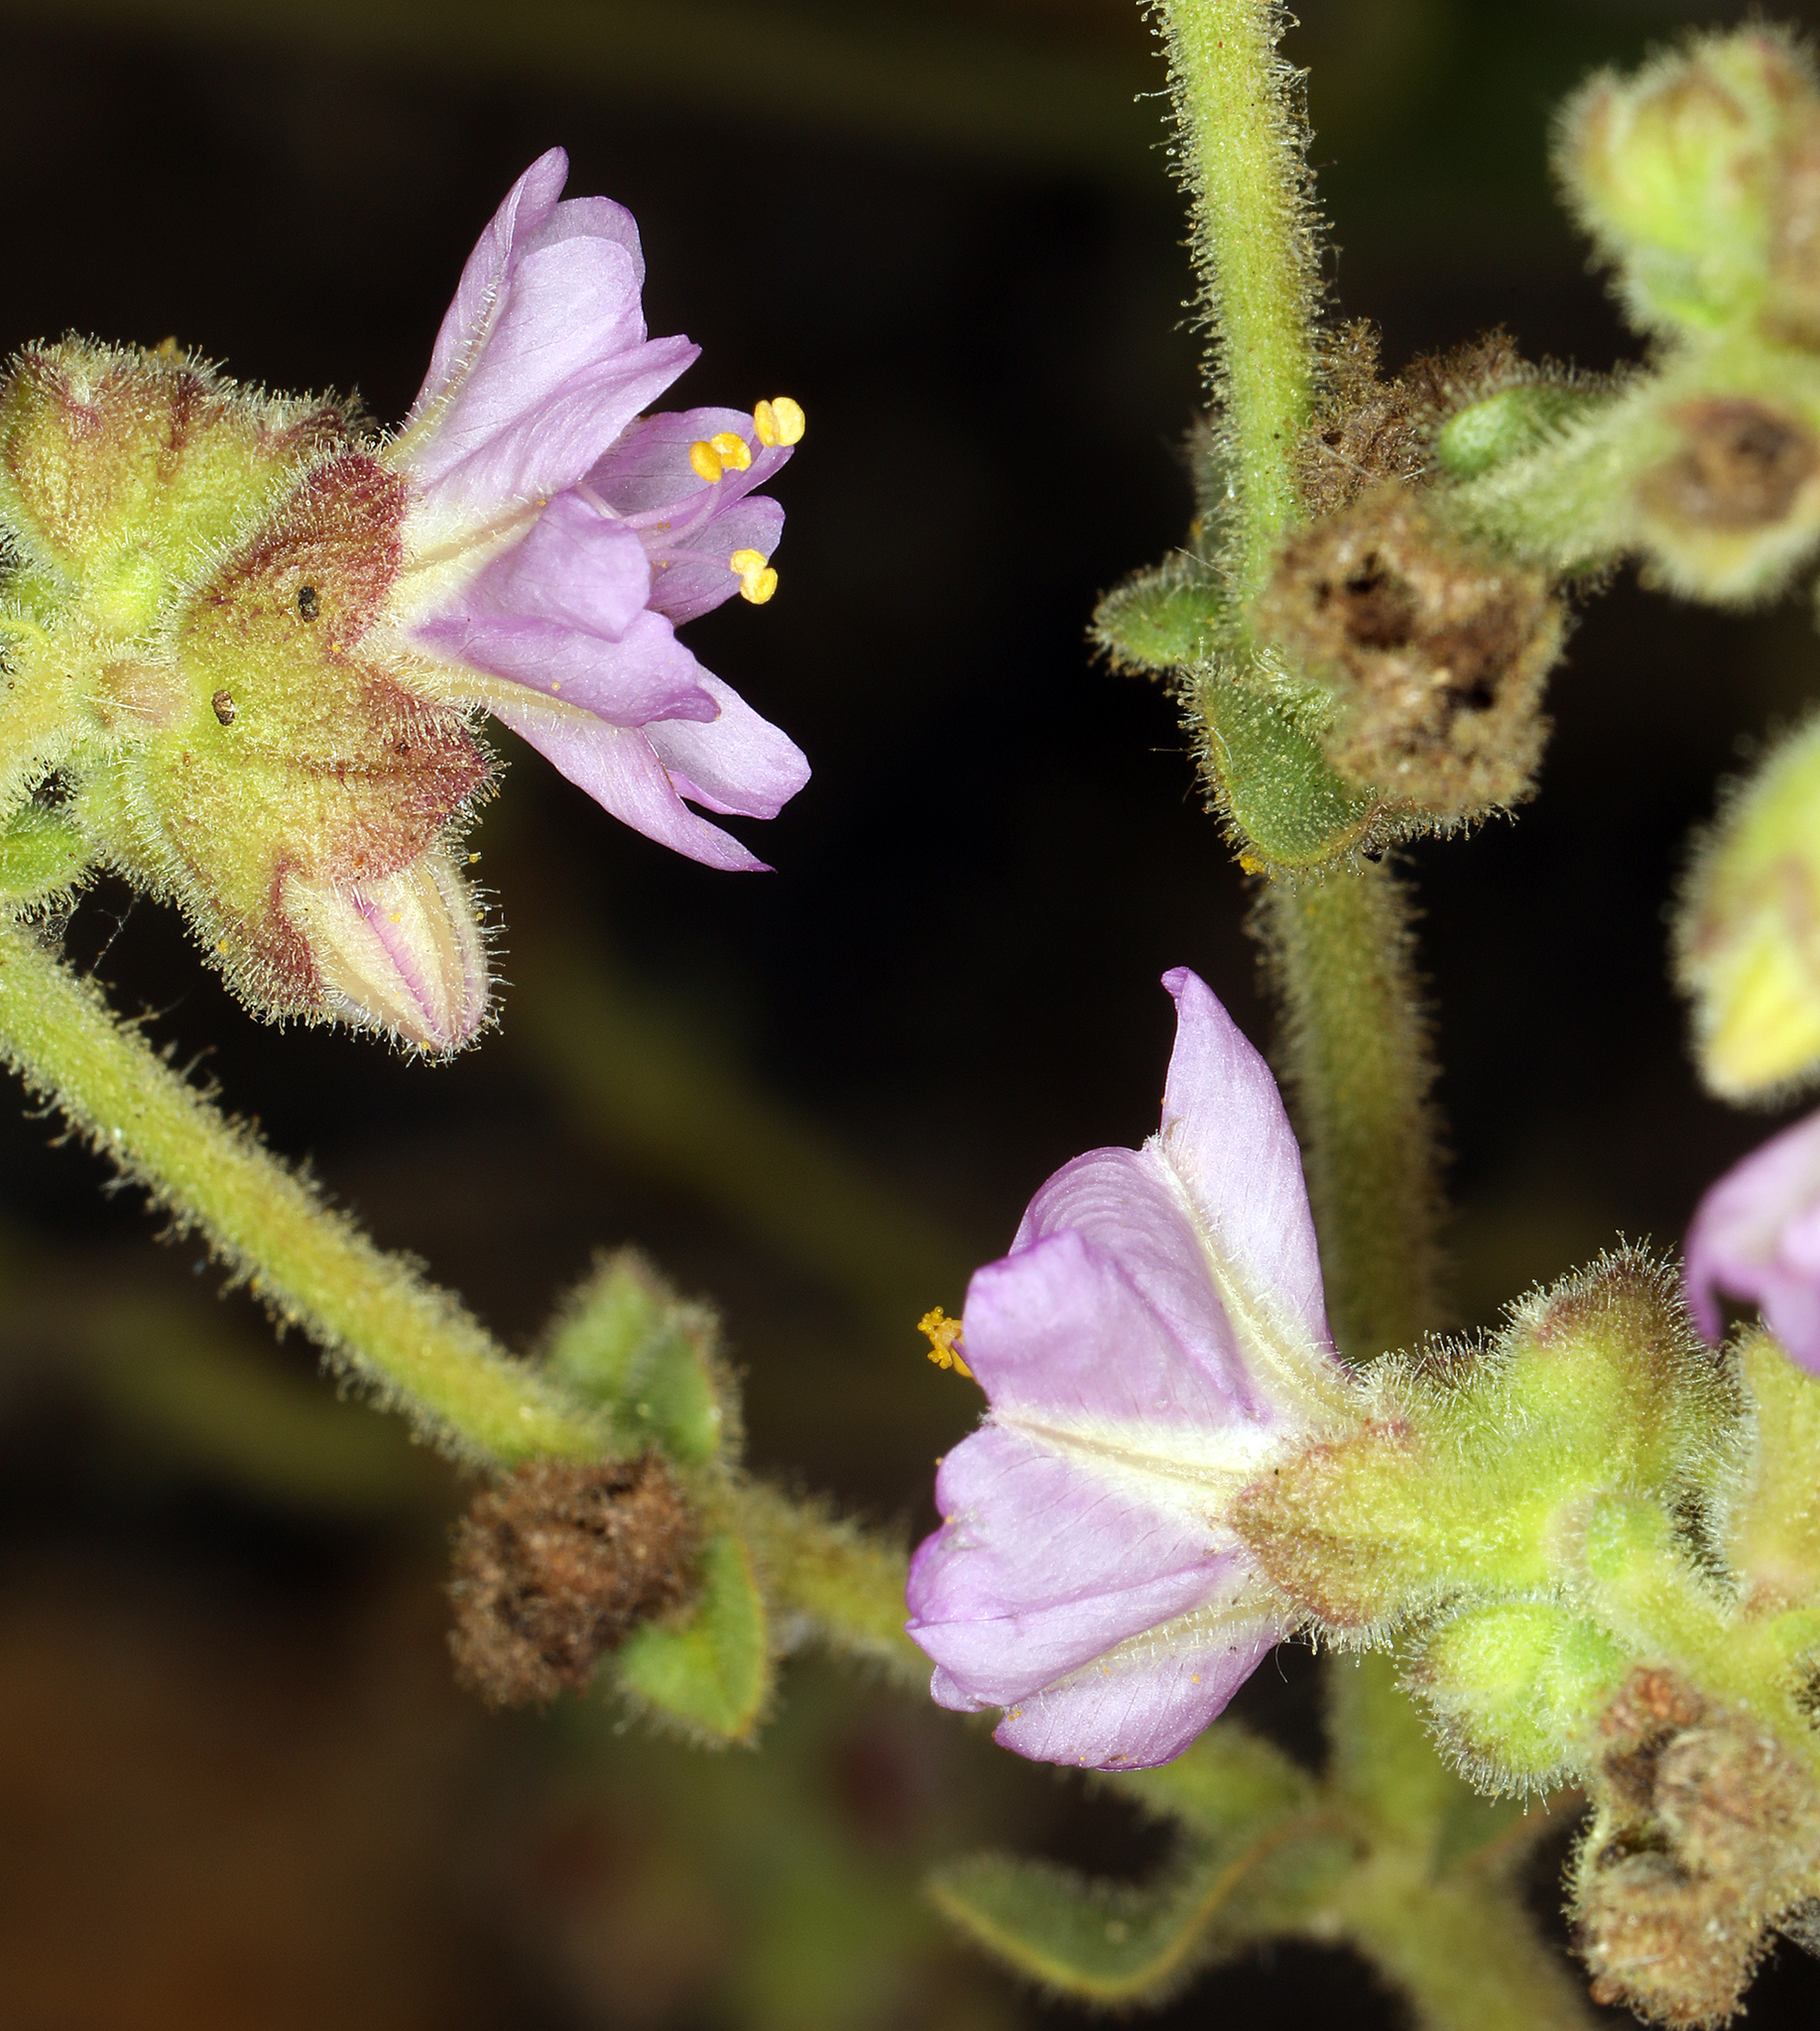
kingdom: Plantae
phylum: Tracheophyta
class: Magnoliopsida
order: Caryophyllales
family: Nyctaginaceae
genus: Mirabilis
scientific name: Mirabilis albida
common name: Hairy four-o'clock
